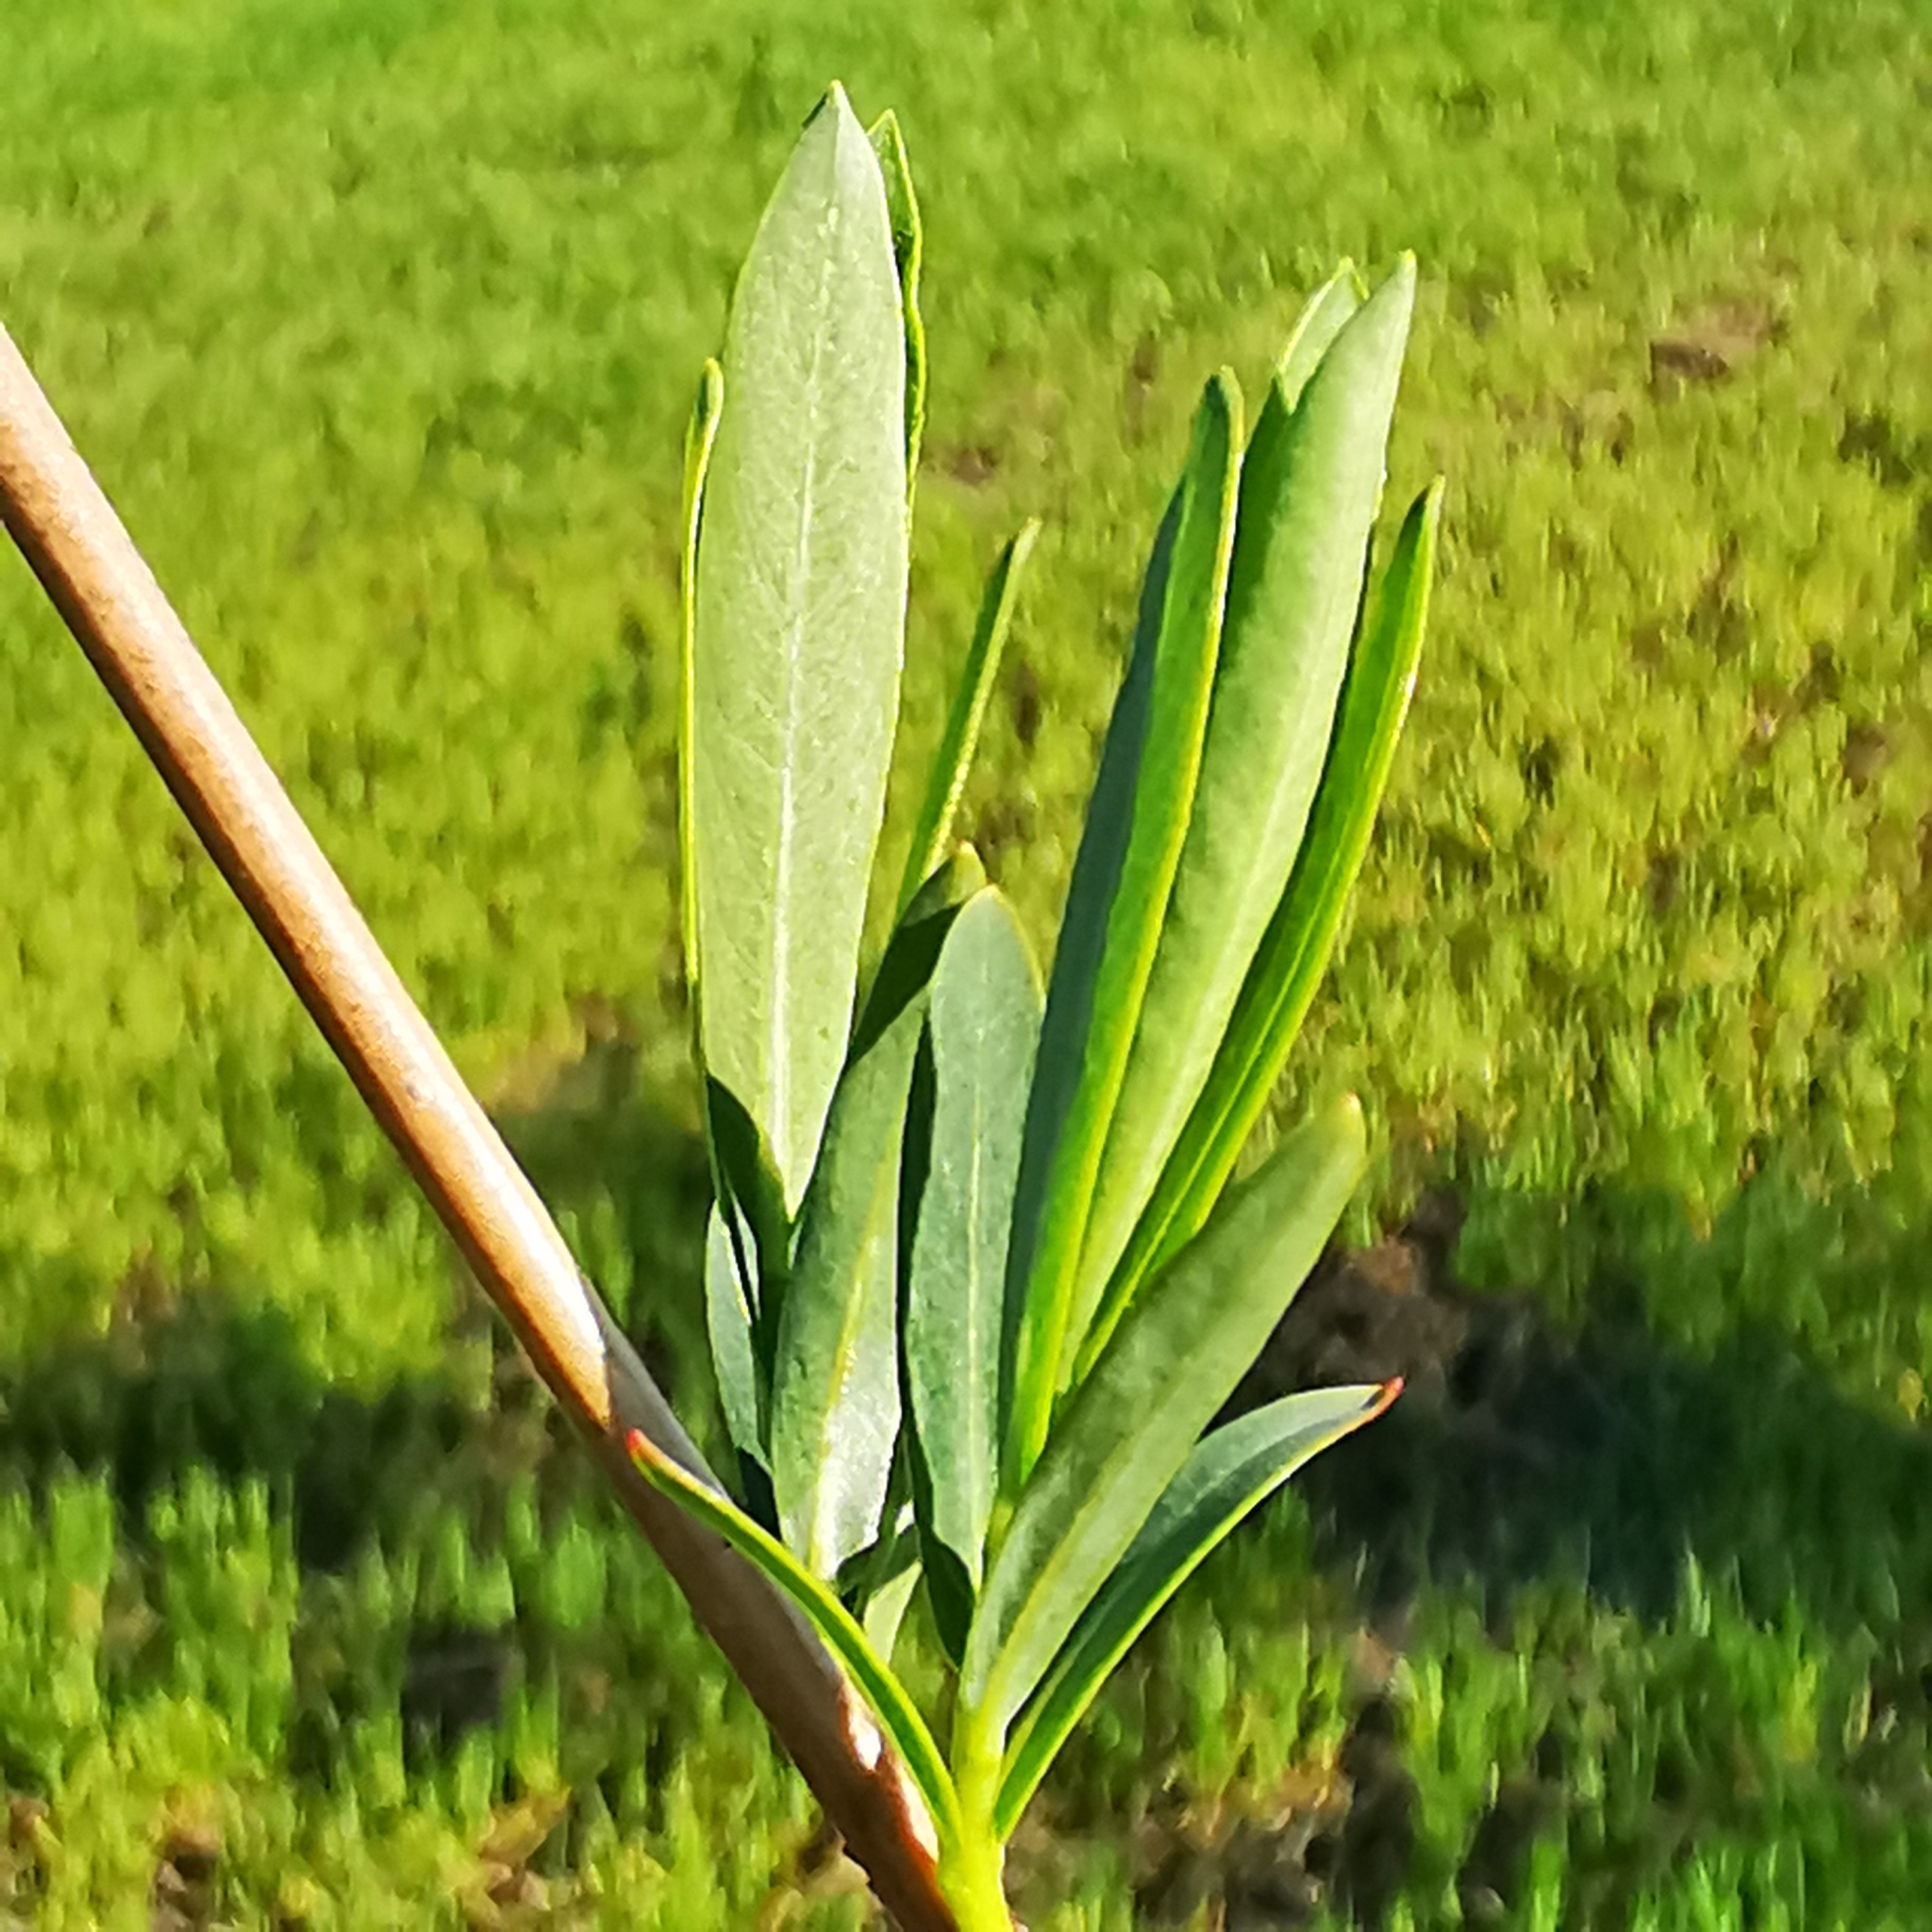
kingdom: Plantae
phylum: Tracheophyta
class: Magnoliopsida
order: Malpighiales
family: Salicaceae
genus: Salix
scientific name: Salix purpurea
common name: Purple willow
